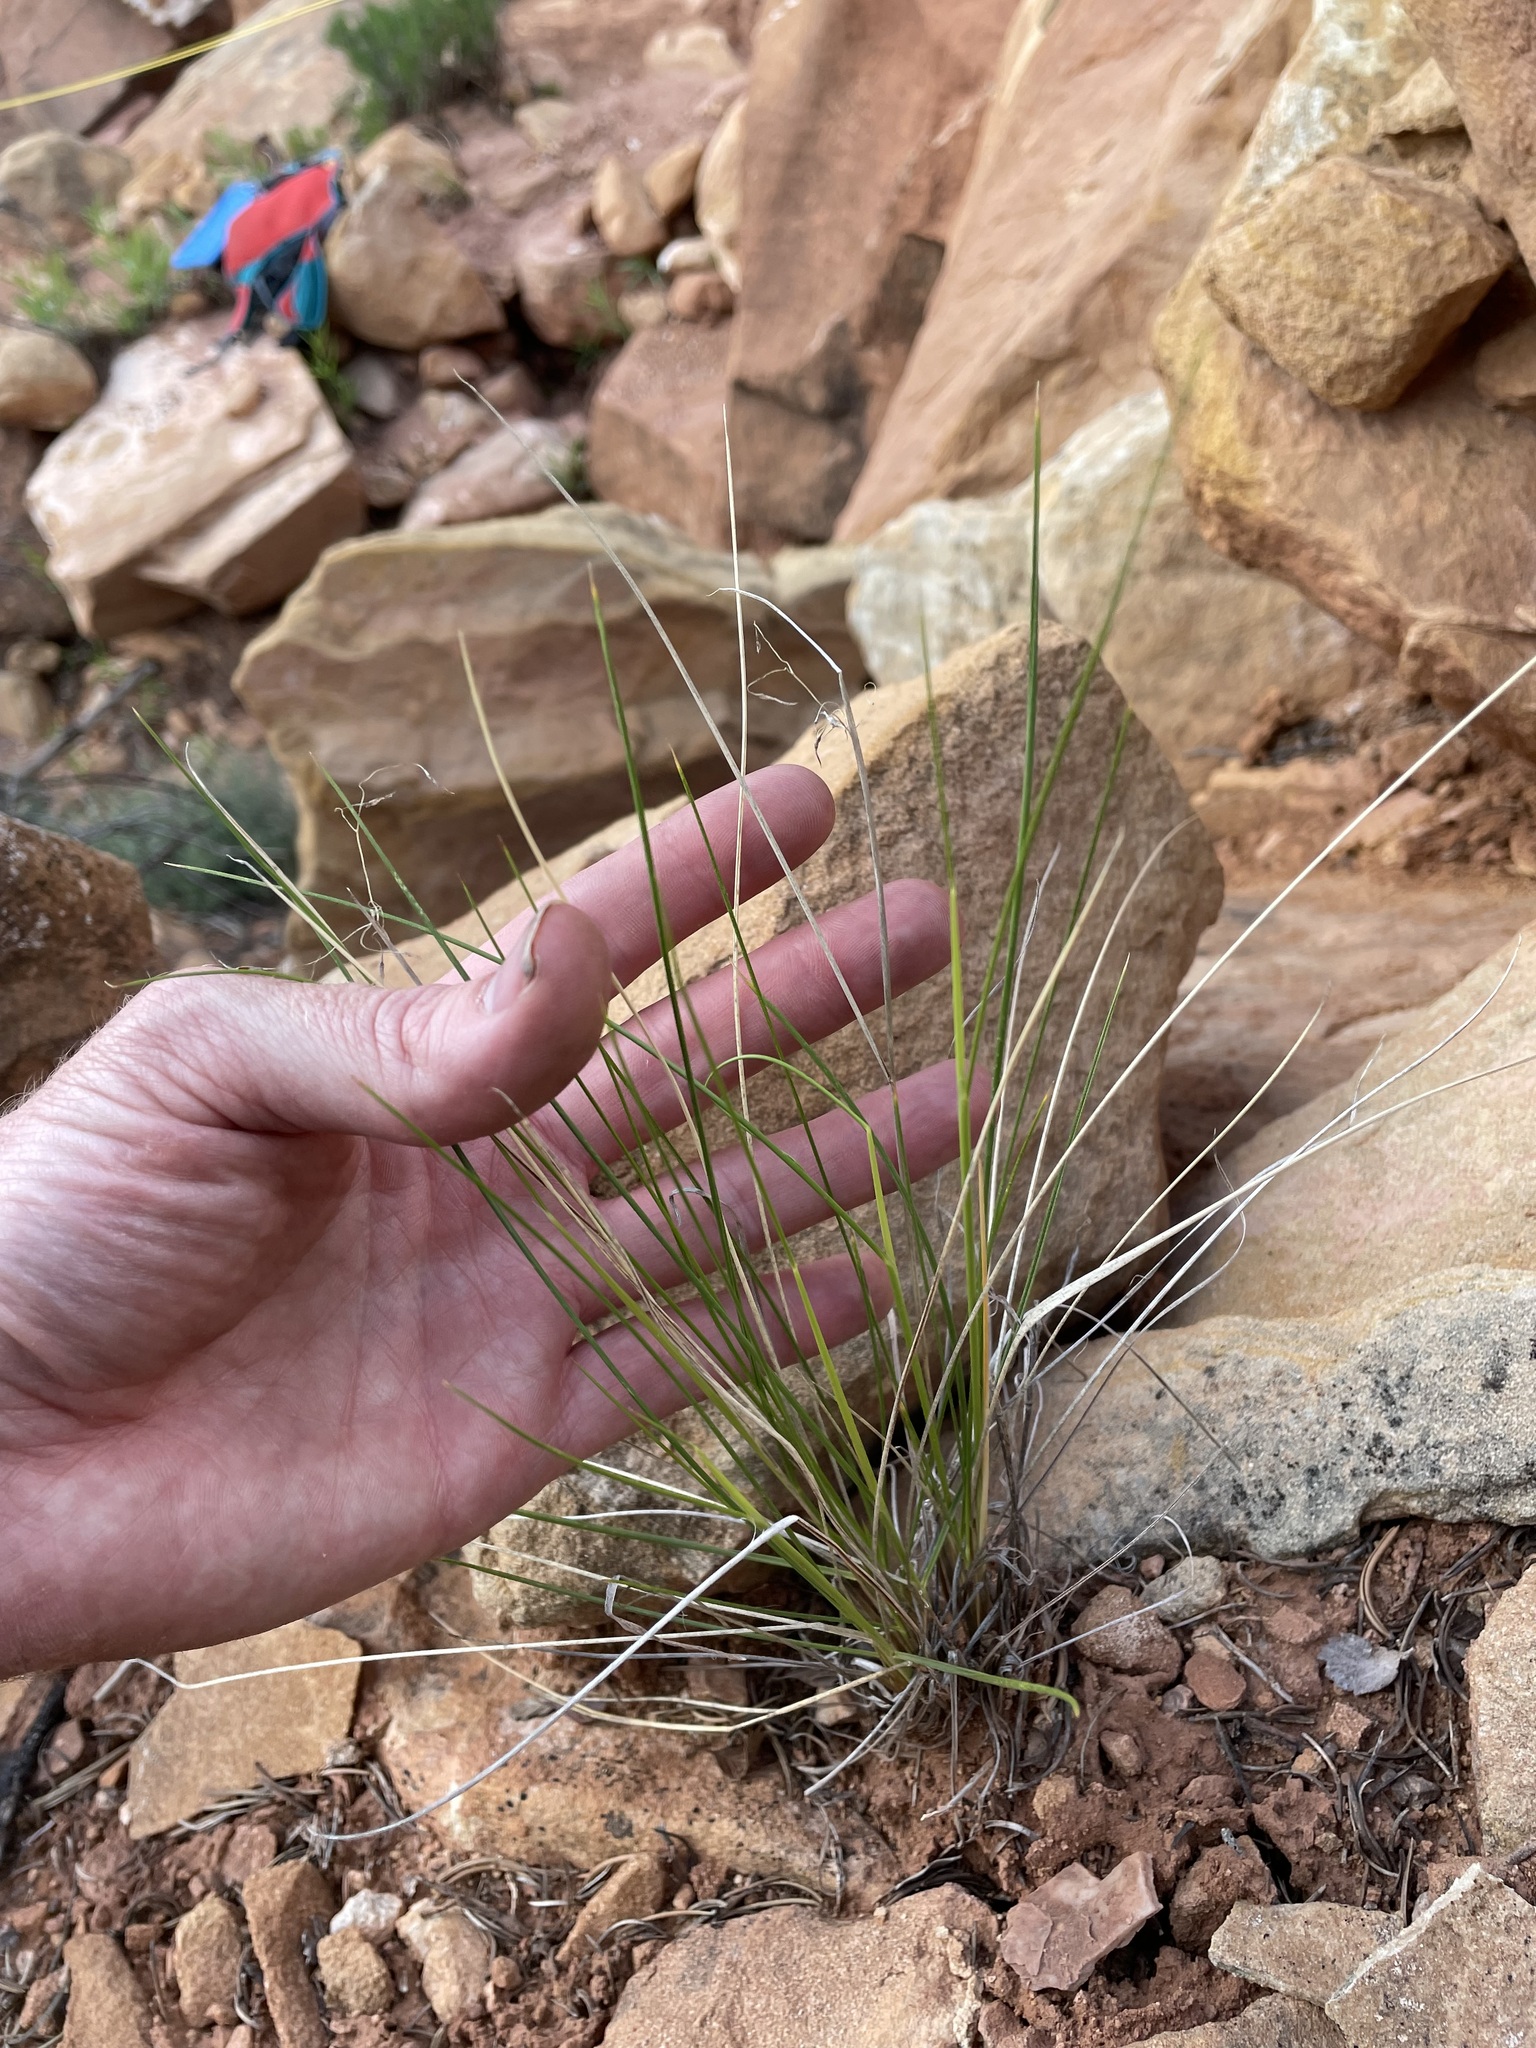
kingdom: Plantae
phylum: Tracheophyta
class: Liliopsida
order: Poales
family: Poaceae
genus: Eriocoma
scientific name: Eriocoma hymenoides
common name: Indian mountain ricegrass
